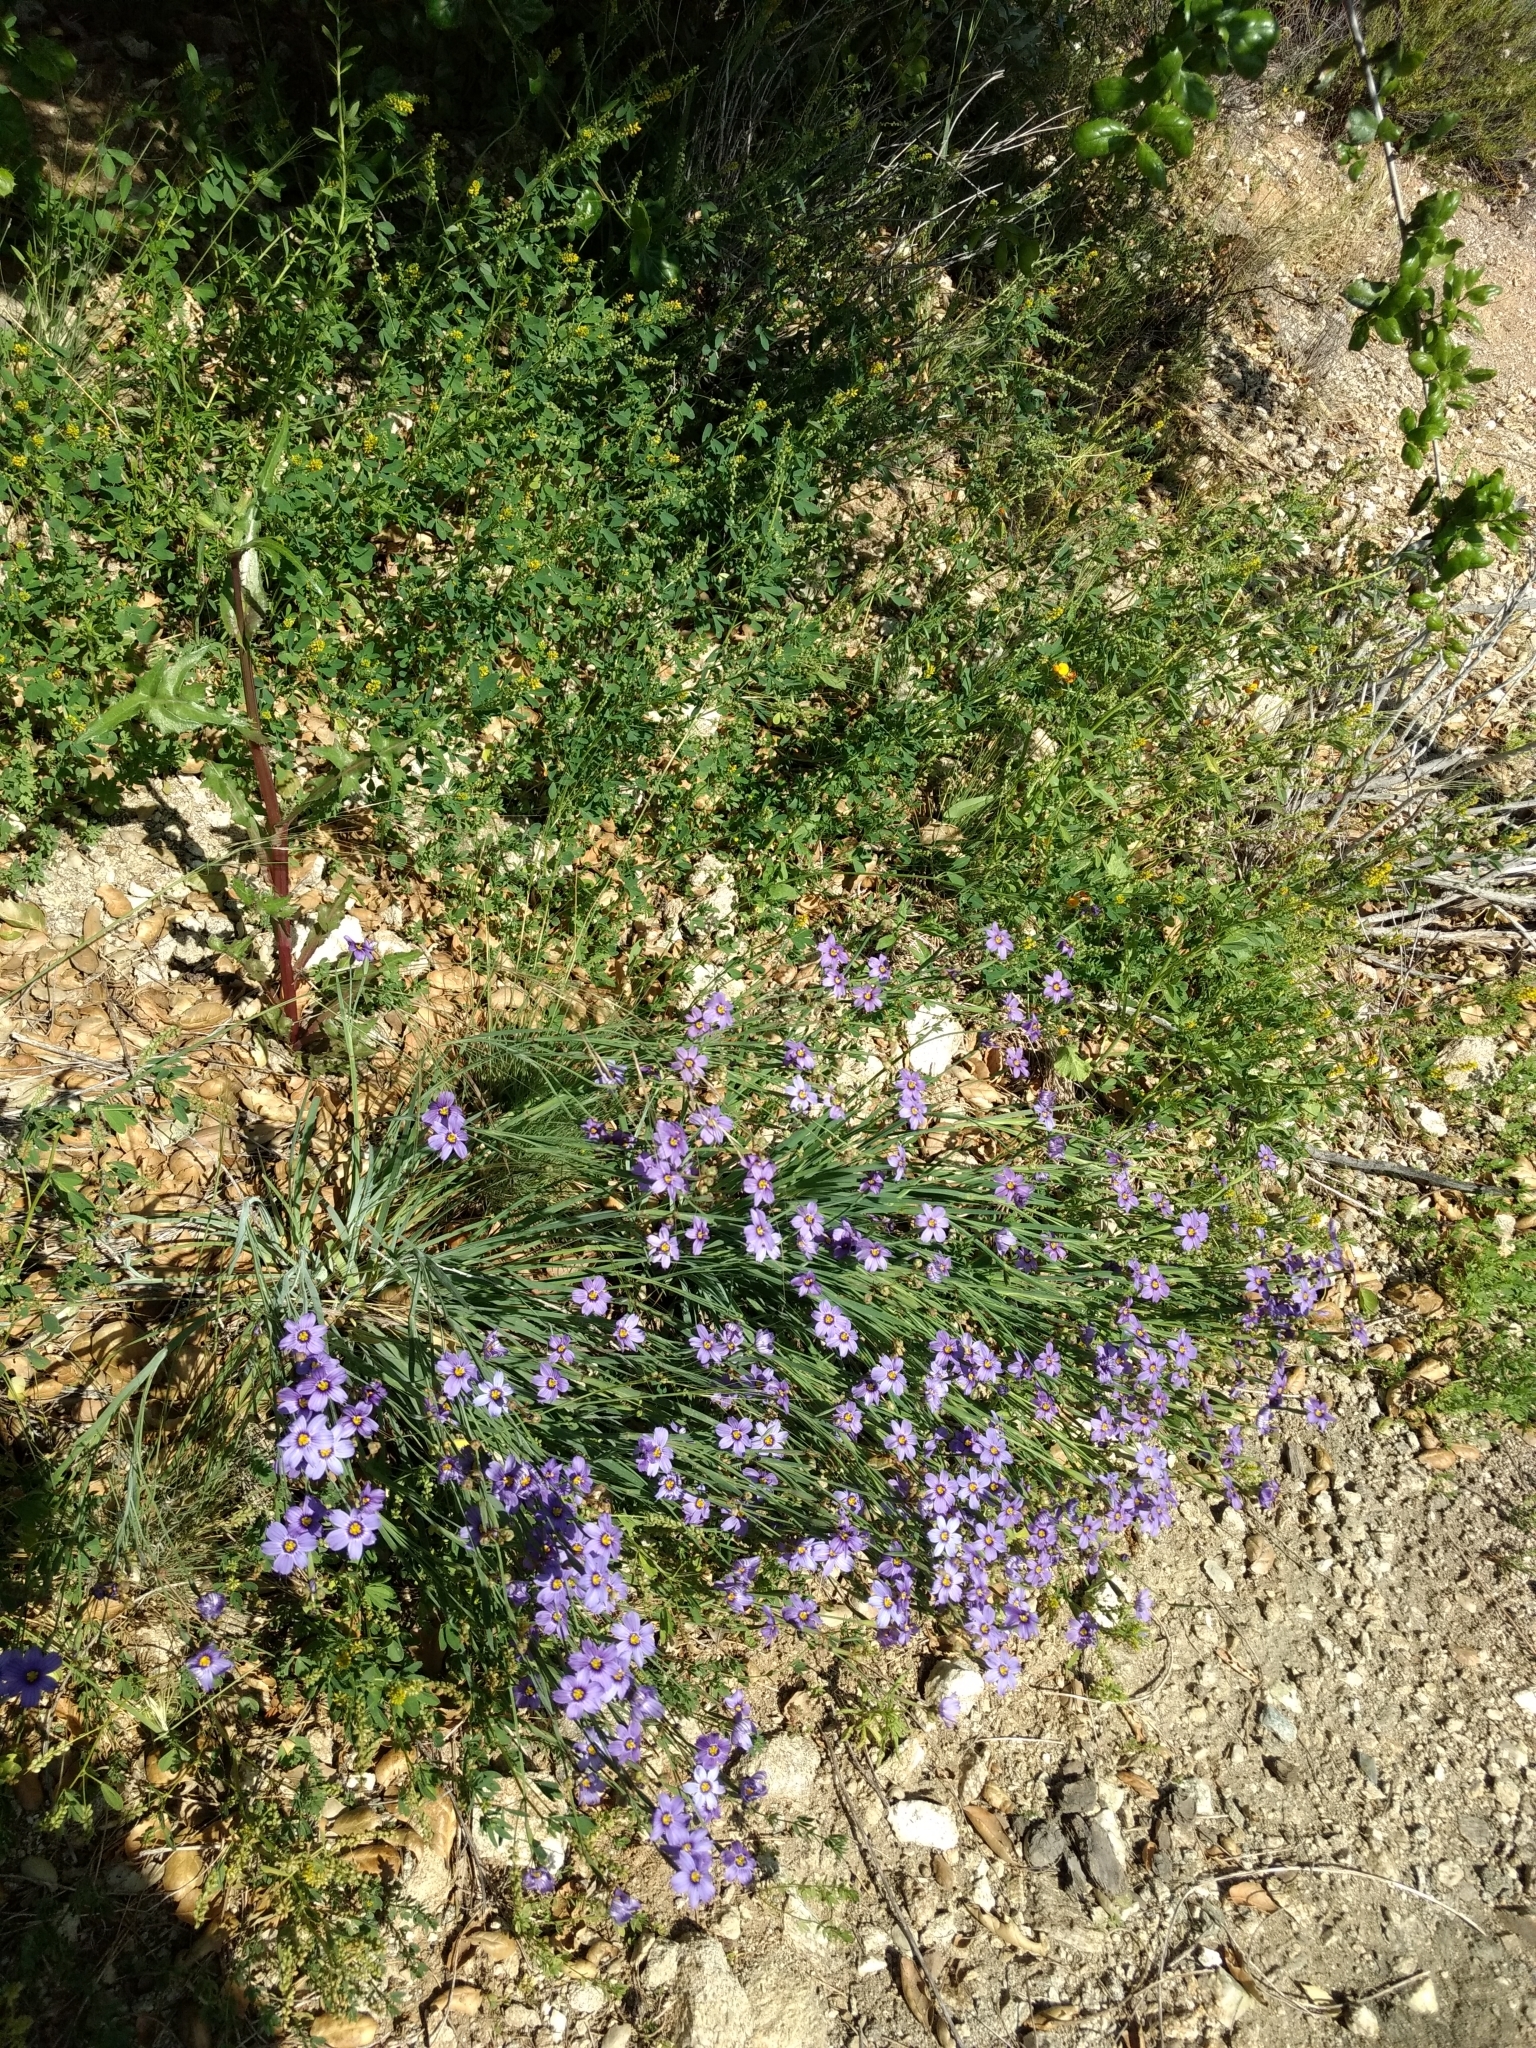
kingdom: Plantae
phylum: Tracheophyta
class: Liliopsida
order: Asparagales
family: Iridaceae
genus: Sisyrinchium
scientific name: Sisyrinchium bellum
